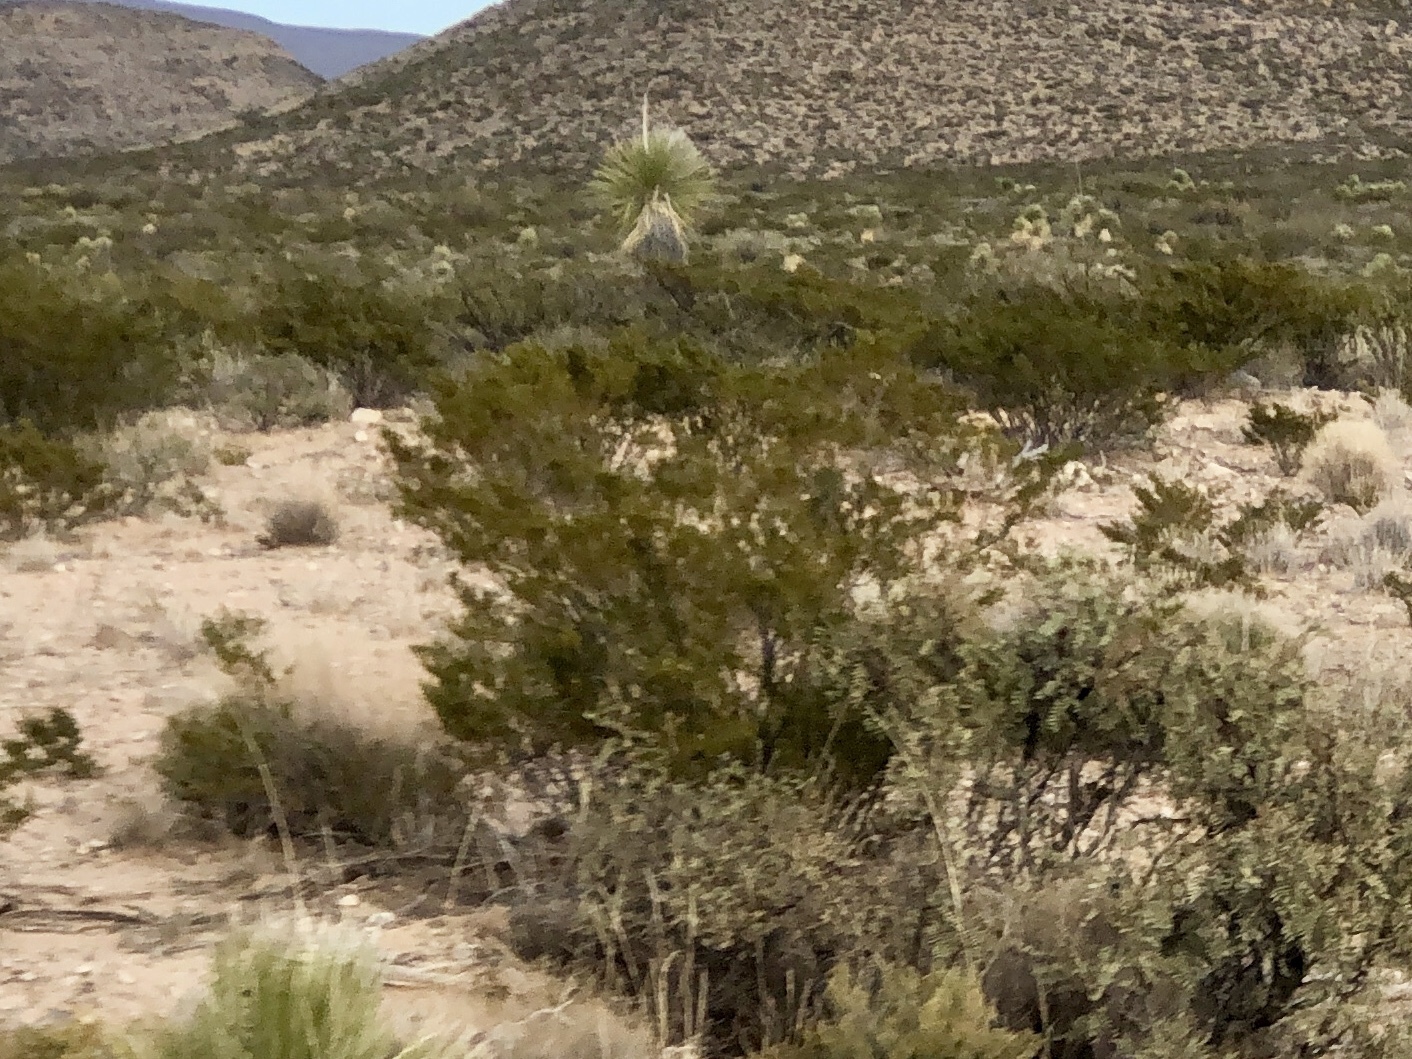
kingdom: Plantae
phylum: Tracheophyta
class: Magnoliopsida
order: Zygophyllales
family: Zygophyllaceae
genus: Larrea
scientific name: Larrea tridentata
